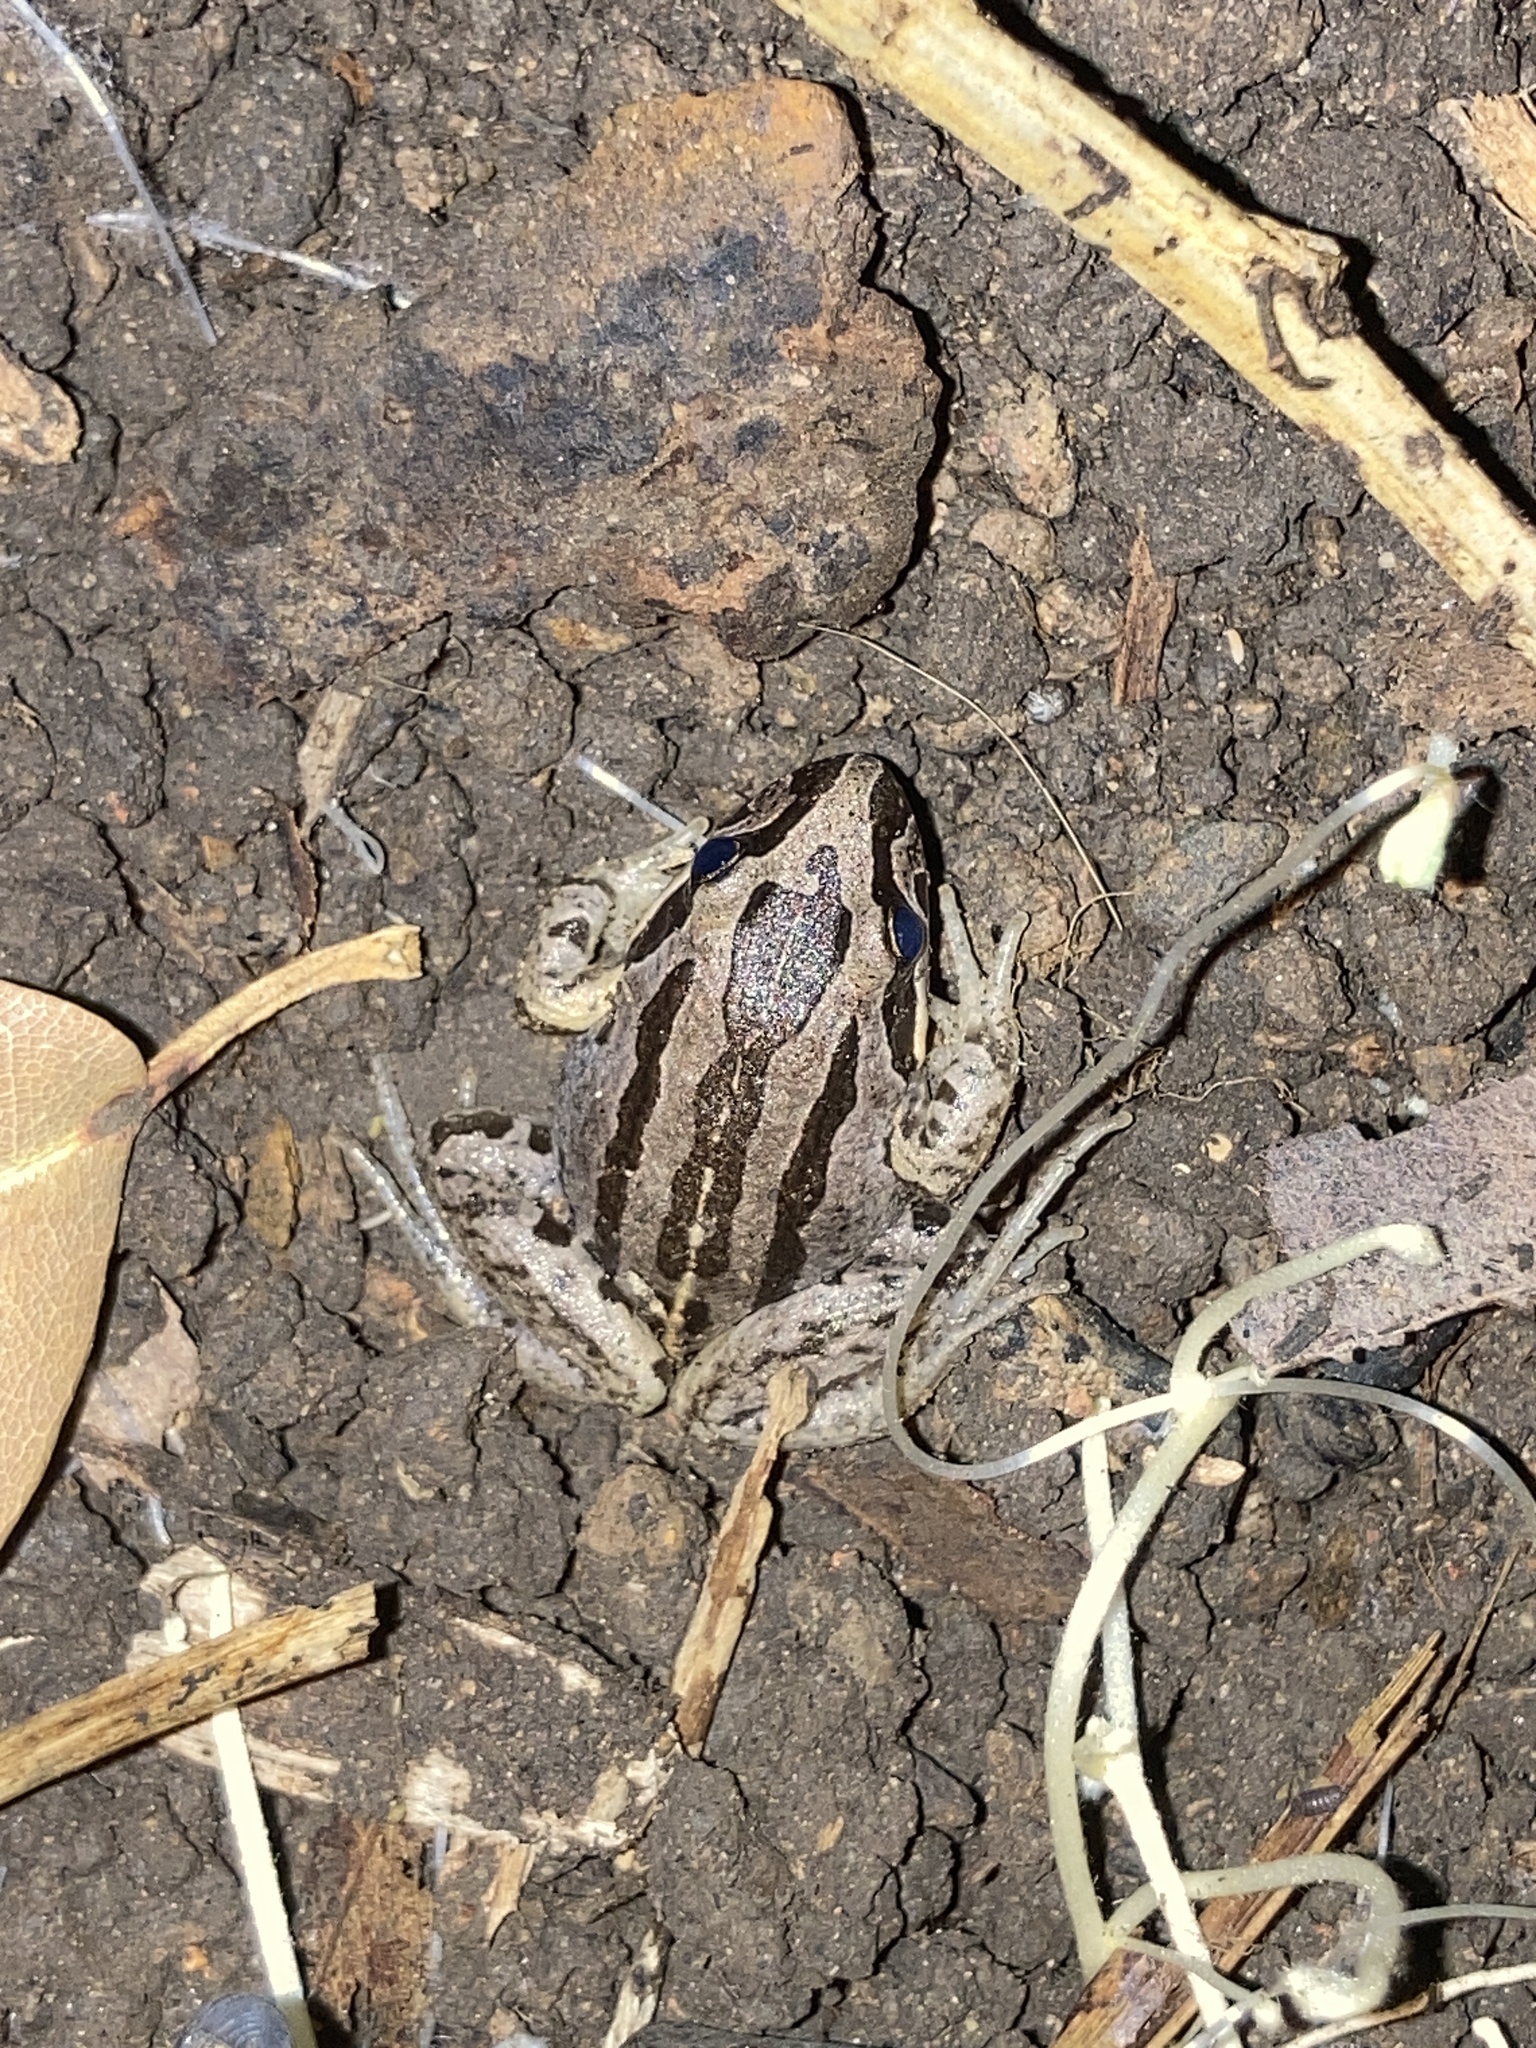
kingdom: Animalia
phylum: Chordata
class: Amphibia
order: Anura
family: Limnodynastidae
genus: Limnodynastes
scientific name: Limnodynastes peronii
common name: Brown frog
